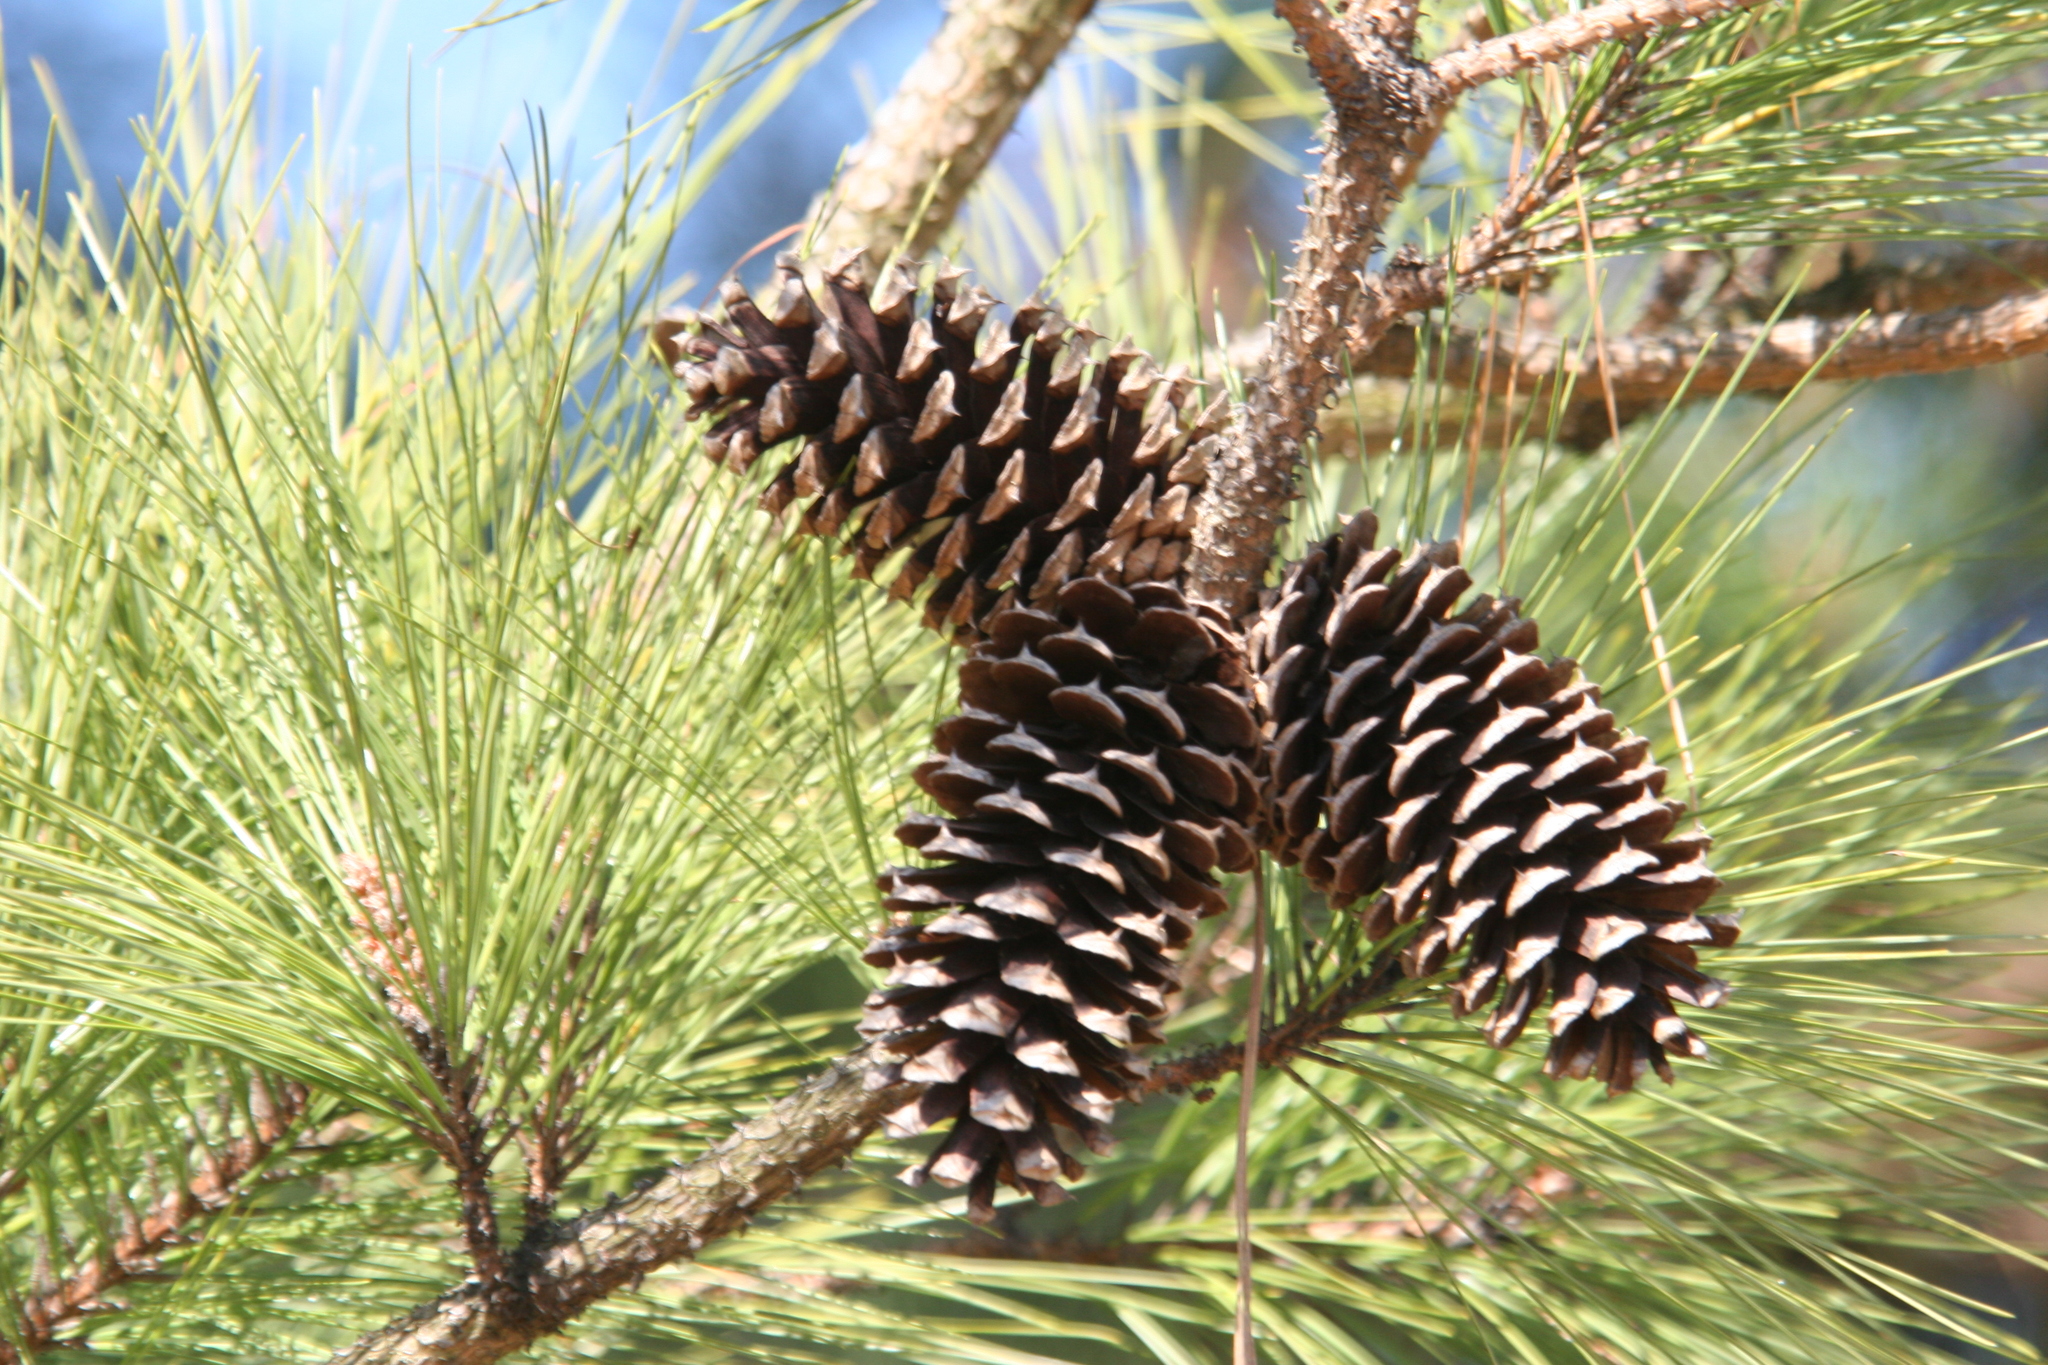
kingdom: Plantae
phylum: Tracheophyta
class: Pinopsida
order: Pinales
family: Pinaceae
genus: Pinus
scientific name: Pinus taeda
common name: Loblolly pine
